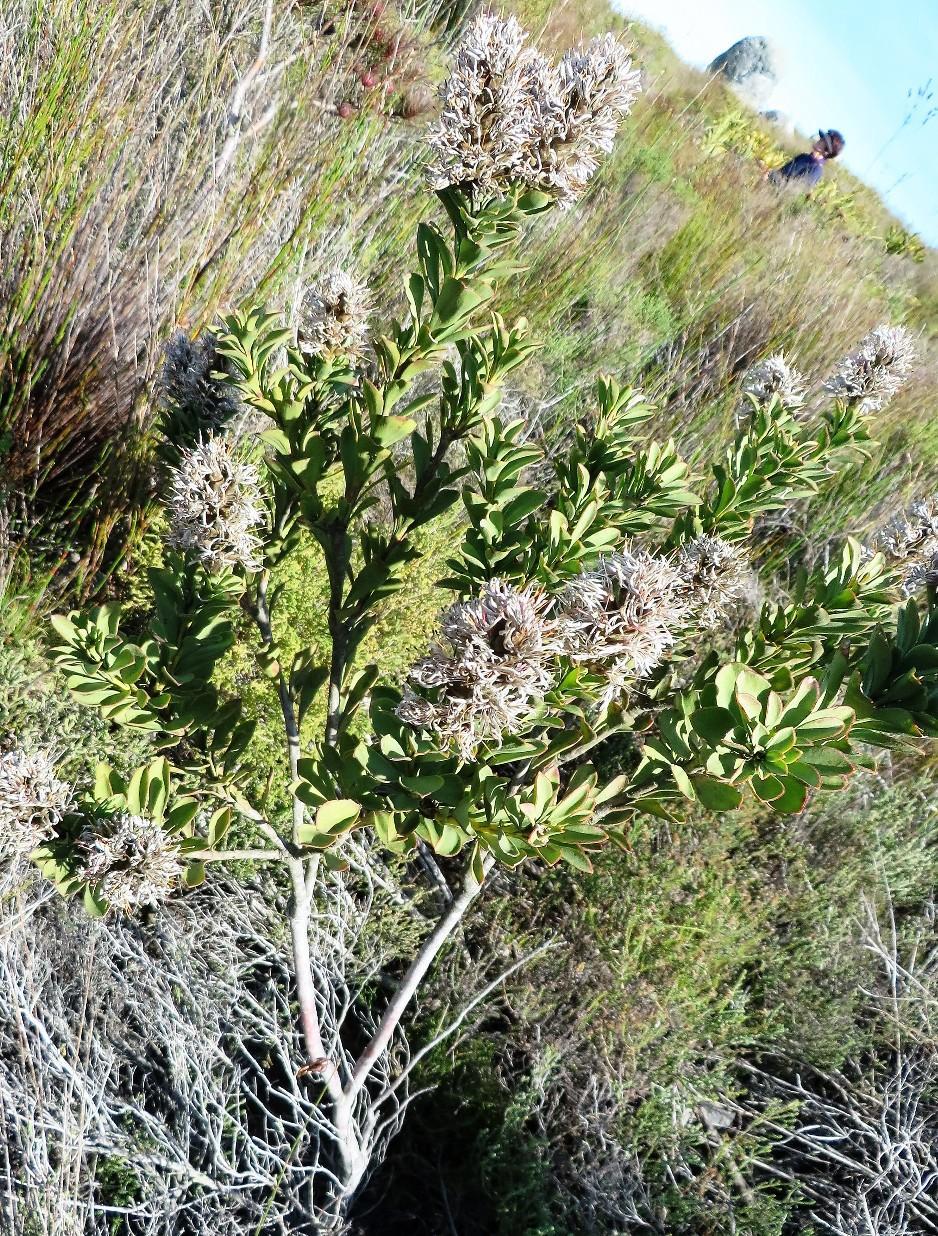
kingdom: Plantae
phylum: Tracheophyta
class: Magnoliopsida
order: Proteales
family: Proteaceae
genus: Paranomus
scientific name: Paranomus sceptrum-gustavianus
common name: King gustav's sceptre
